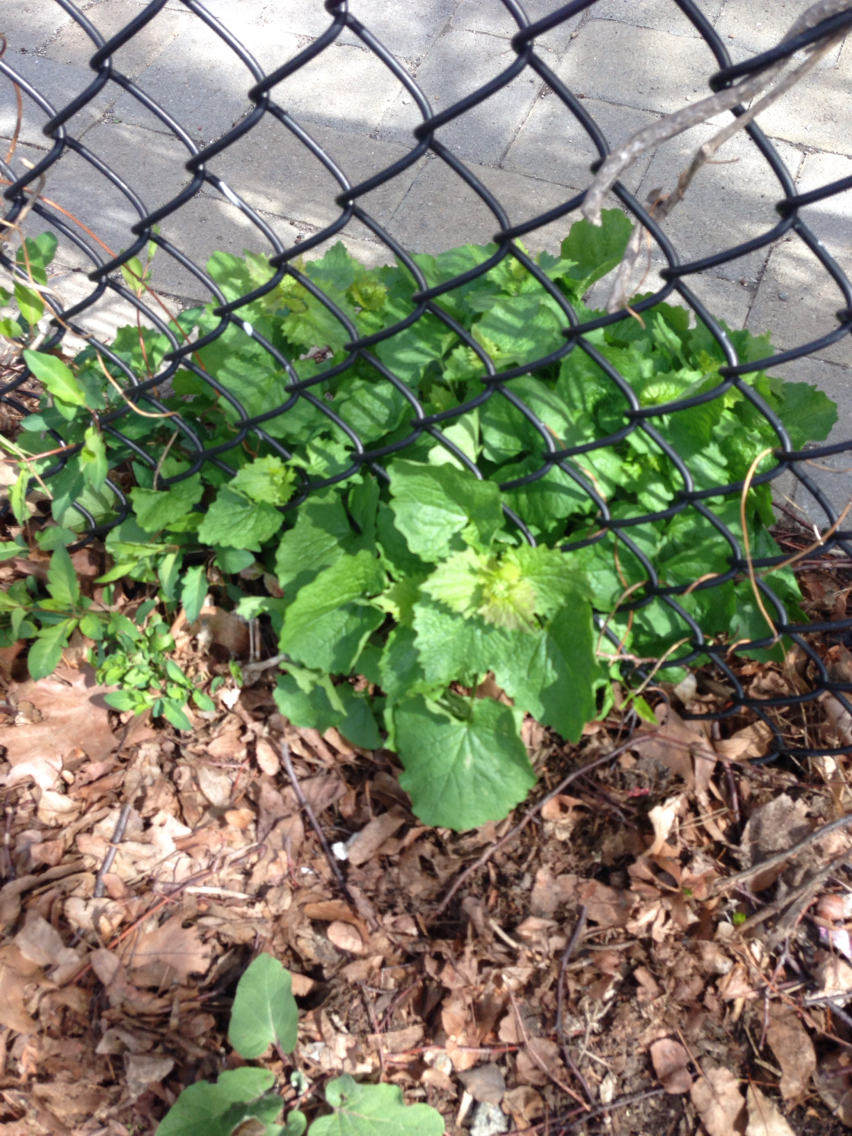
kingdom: Plantae
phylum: Tracheophyta
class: Magnoliopsida
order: Brassicales
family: Brassicaceae
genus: Alliaria
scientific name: Alliaria petiolata
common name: Garlic mustard
